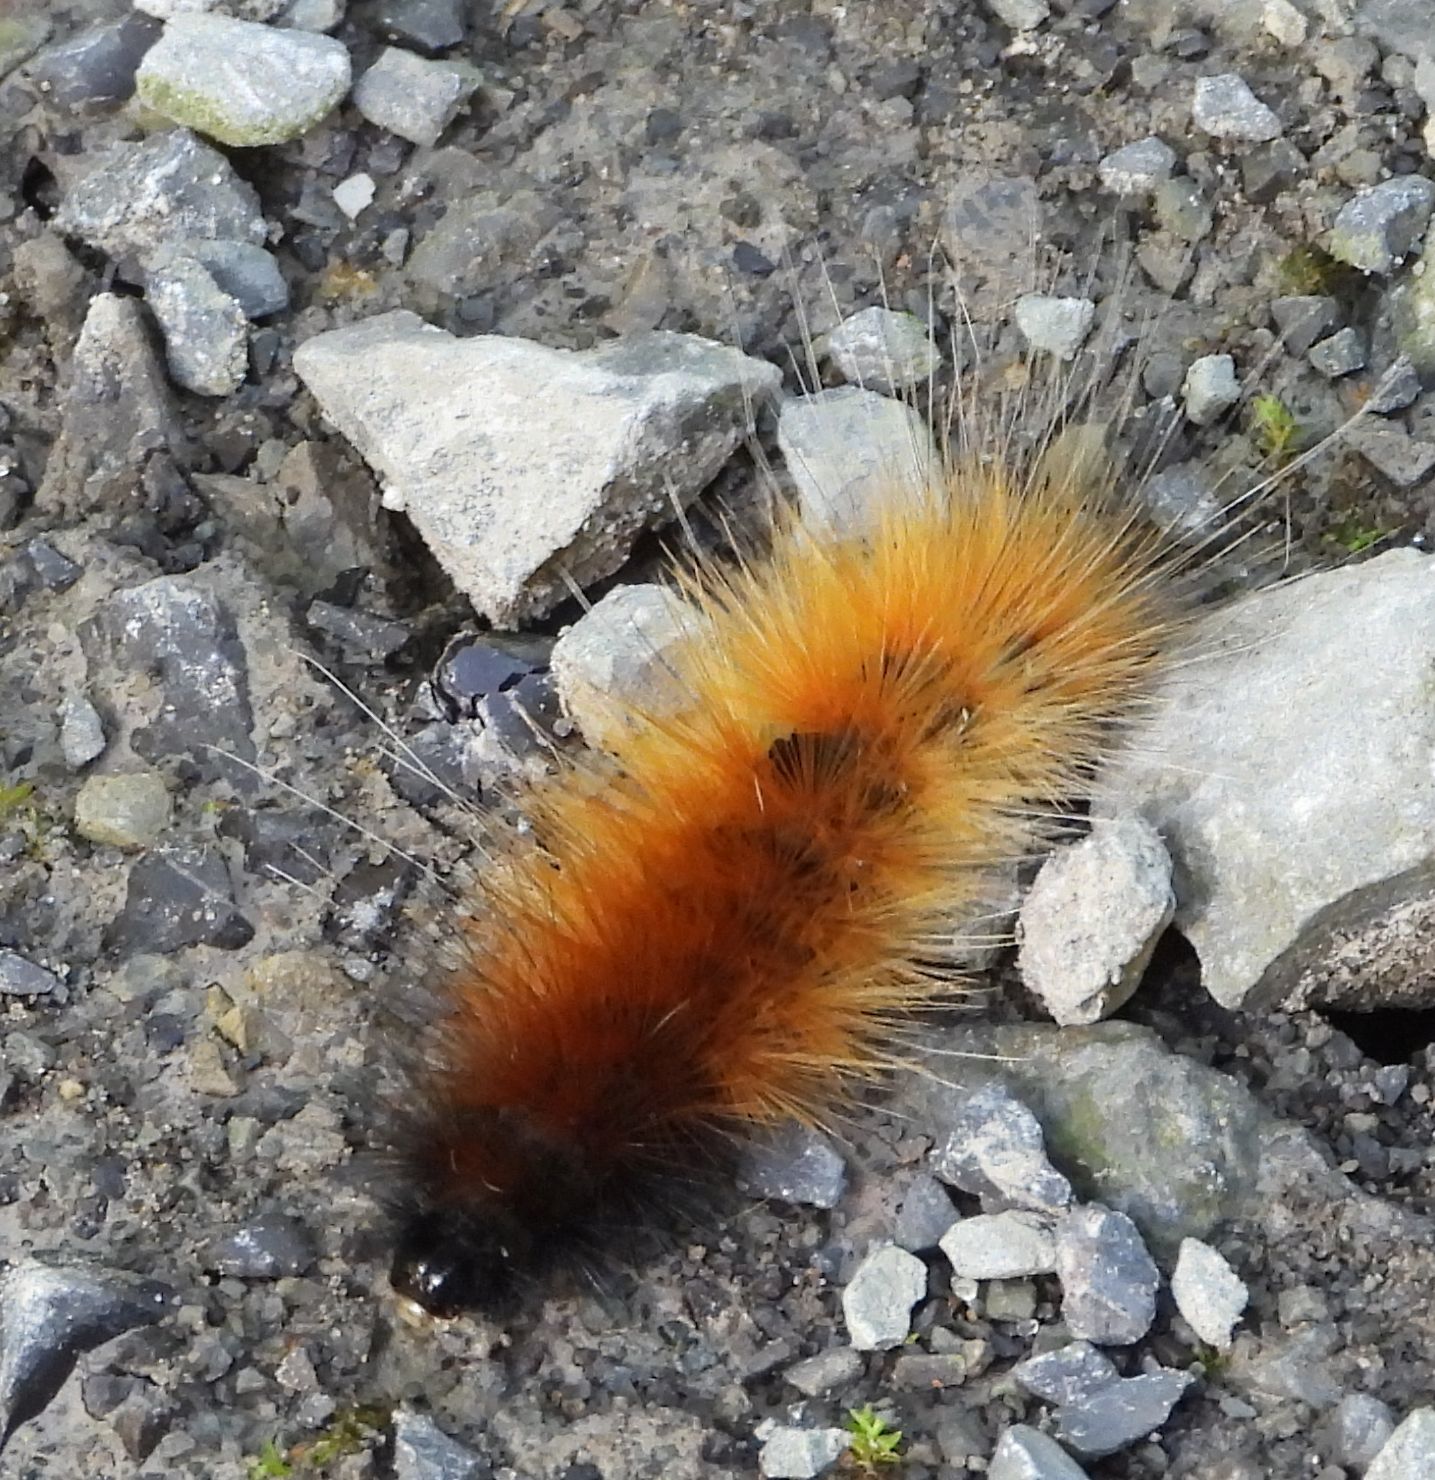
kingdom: Animalia
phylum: Arthropoda
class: Insecta
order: Lepidoptera
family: Erebidae
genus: Spilosoma
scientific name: Spilosoma virginica
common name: Virginia tiger moth
